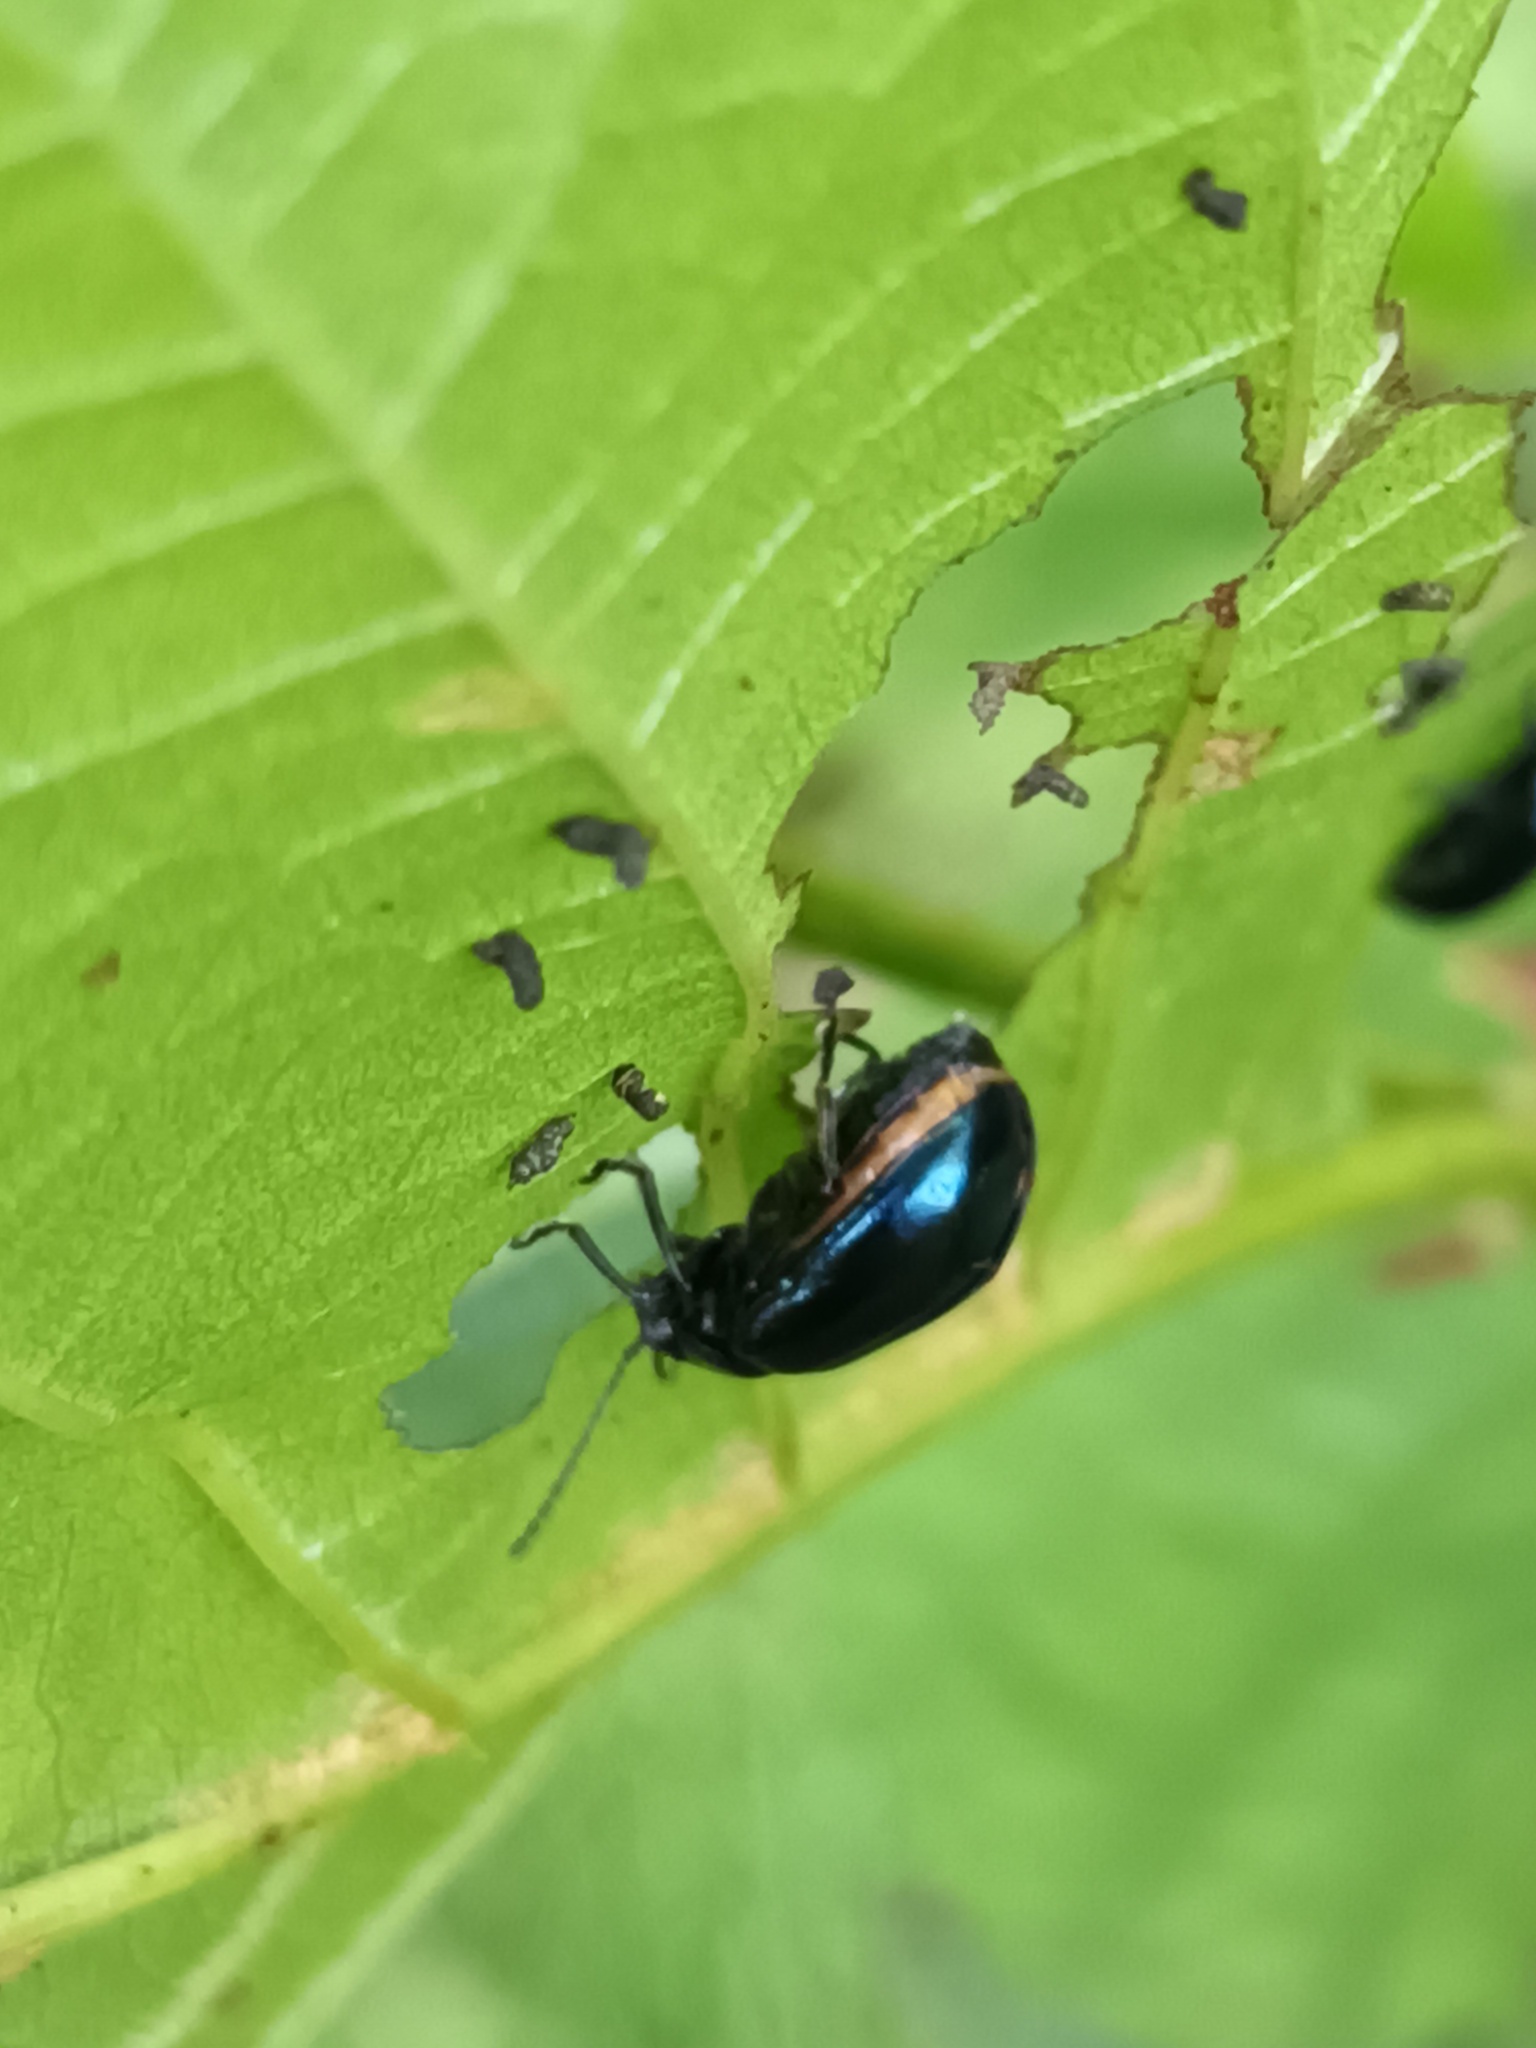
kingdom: Animalia
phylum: Arthropoda
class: Insecta
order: Coleoptera
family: Chrysomelidae
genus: Agelastica
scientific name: Agelastica alni
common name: Alder leaf beetle
